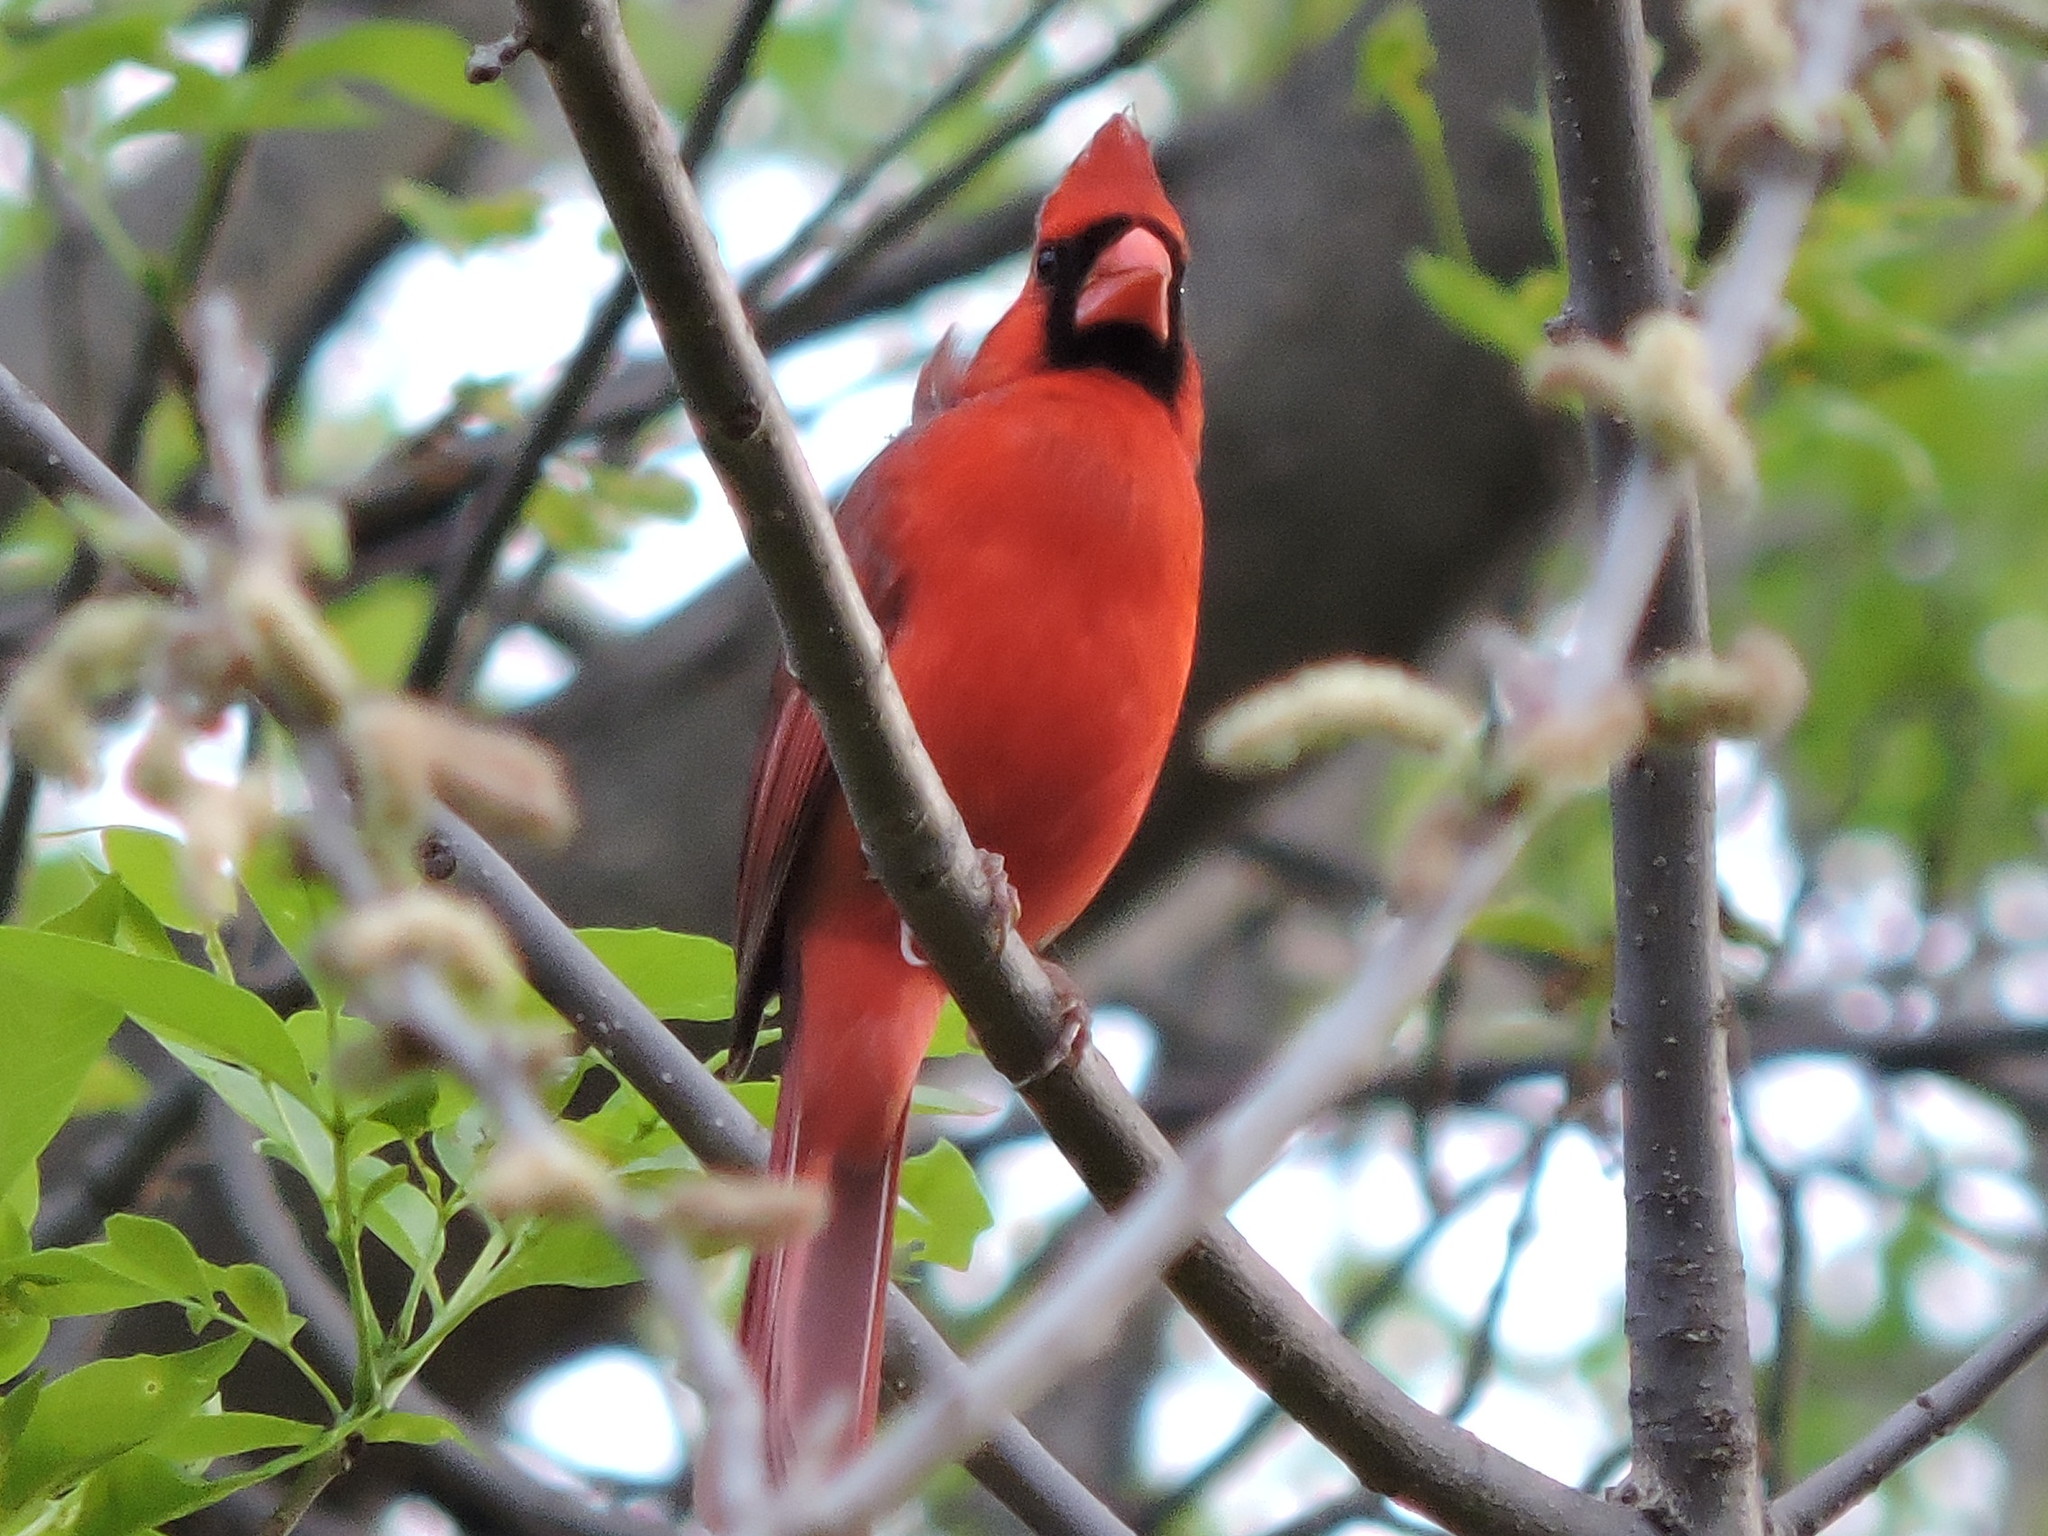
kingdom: Animalia
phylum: Chordata
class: Aves
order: Passeriformes
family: Cardinalidae
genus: Cardinalis
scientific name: Cardinalis cardinalis
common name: Northern cardinal
